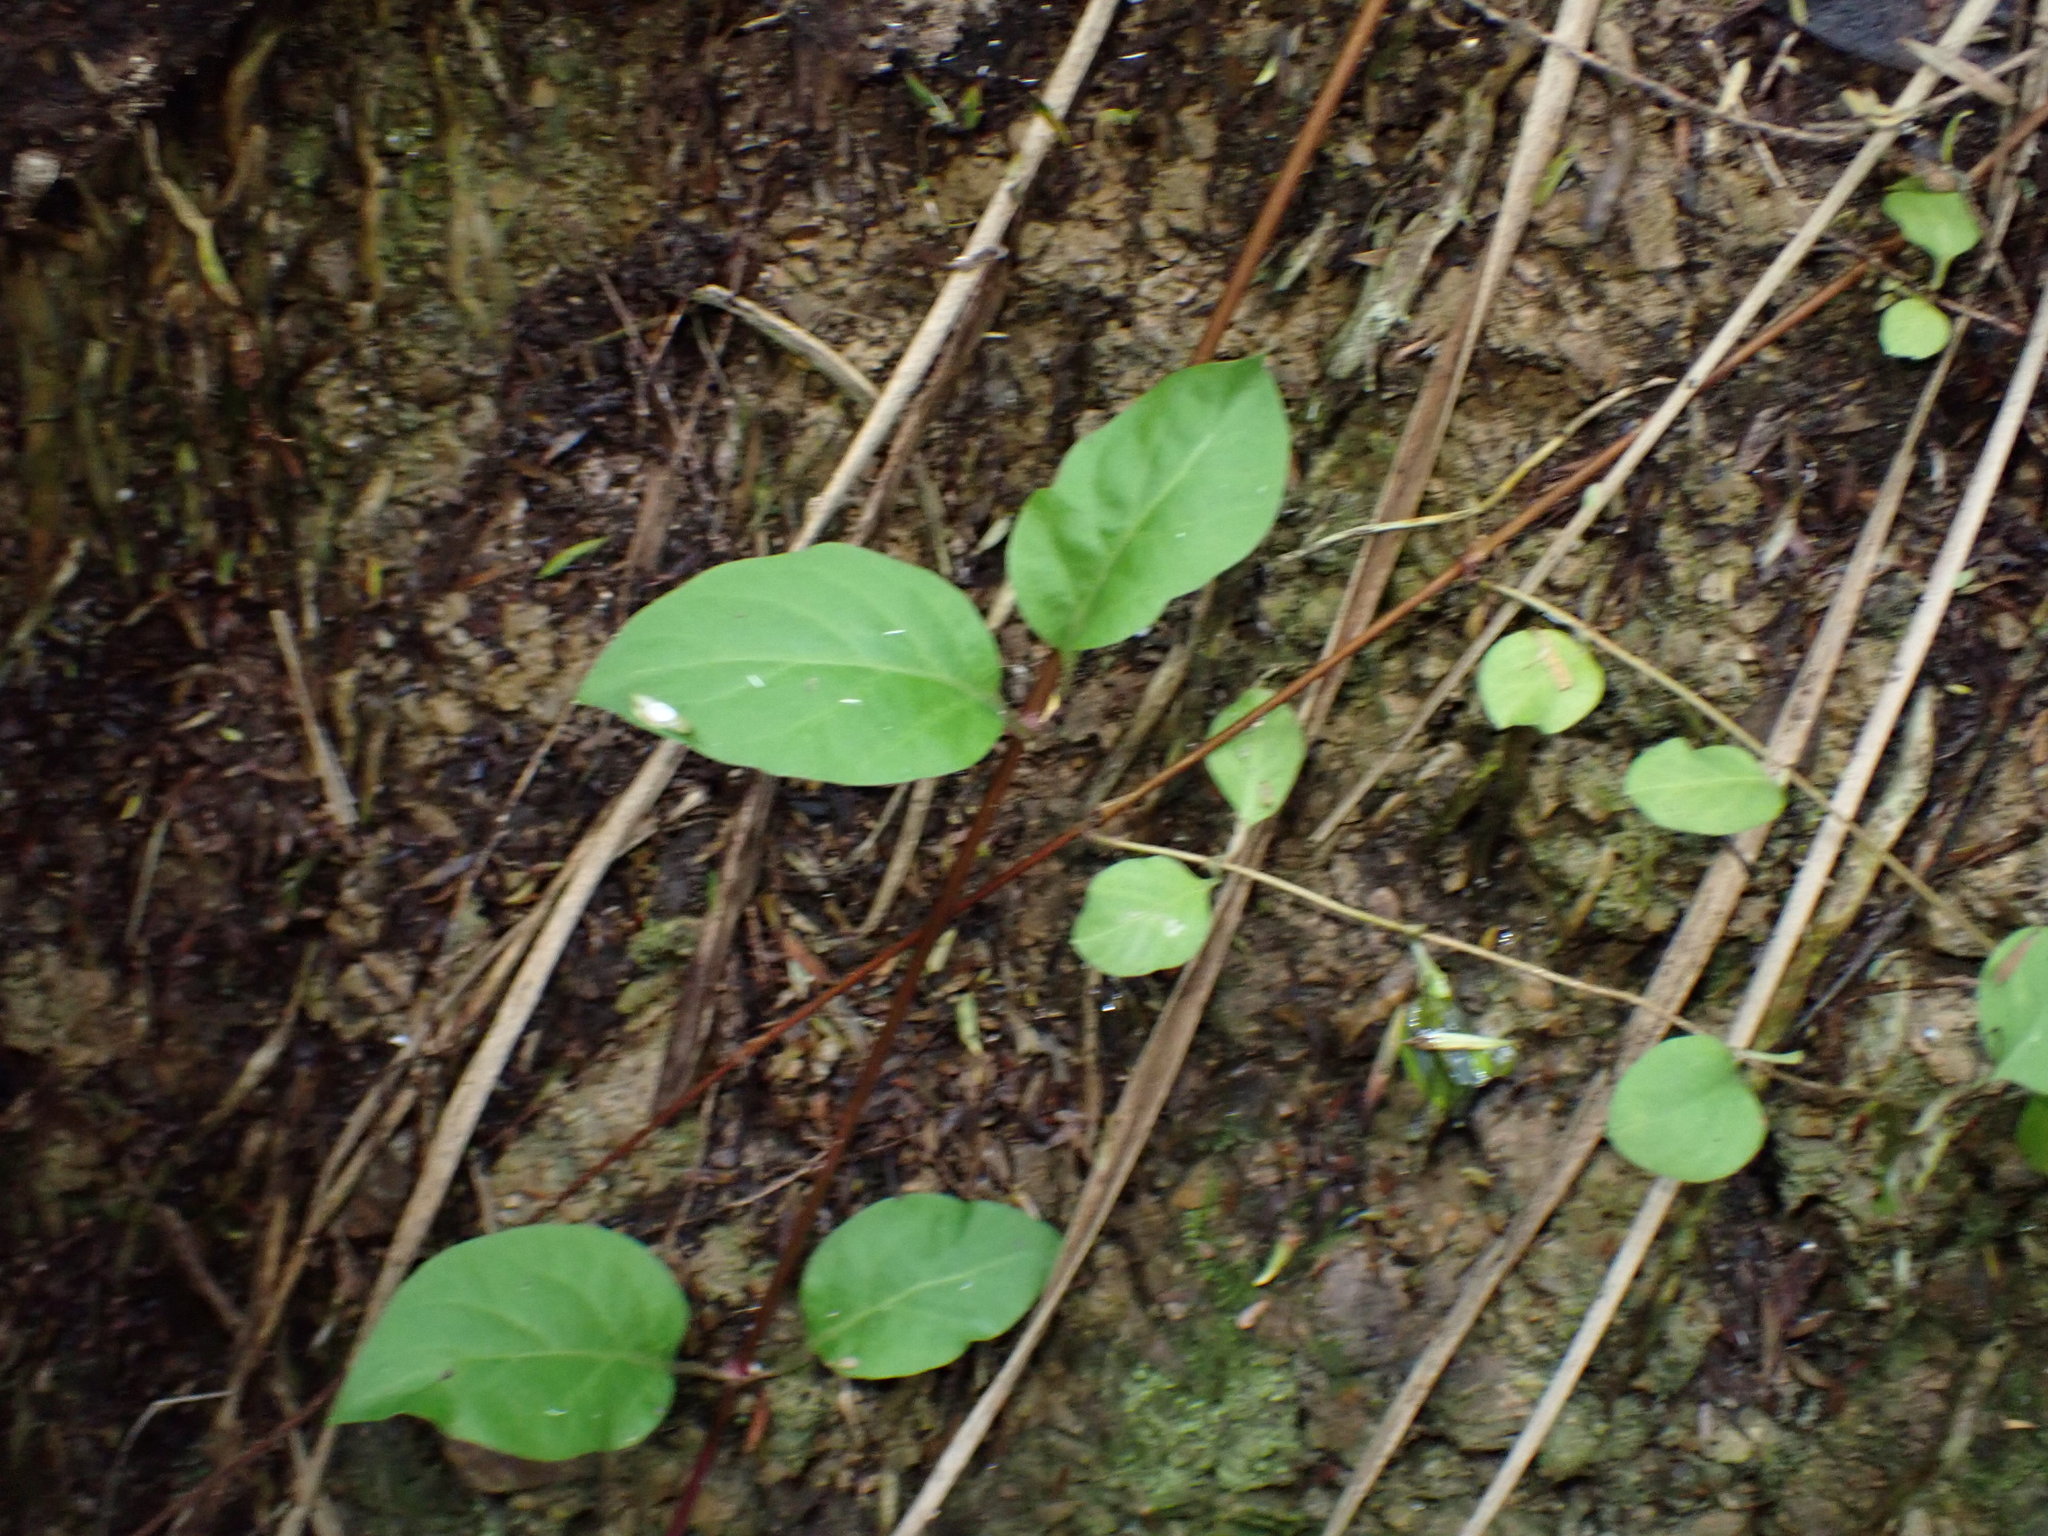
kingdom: Plantae
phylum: Tracheophyta
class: Magnoliopsida
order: Dipsacales
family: Caprifoliaceae
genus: Lonicera
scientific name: Lonicera japonica
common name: Japanese honeysuckle
